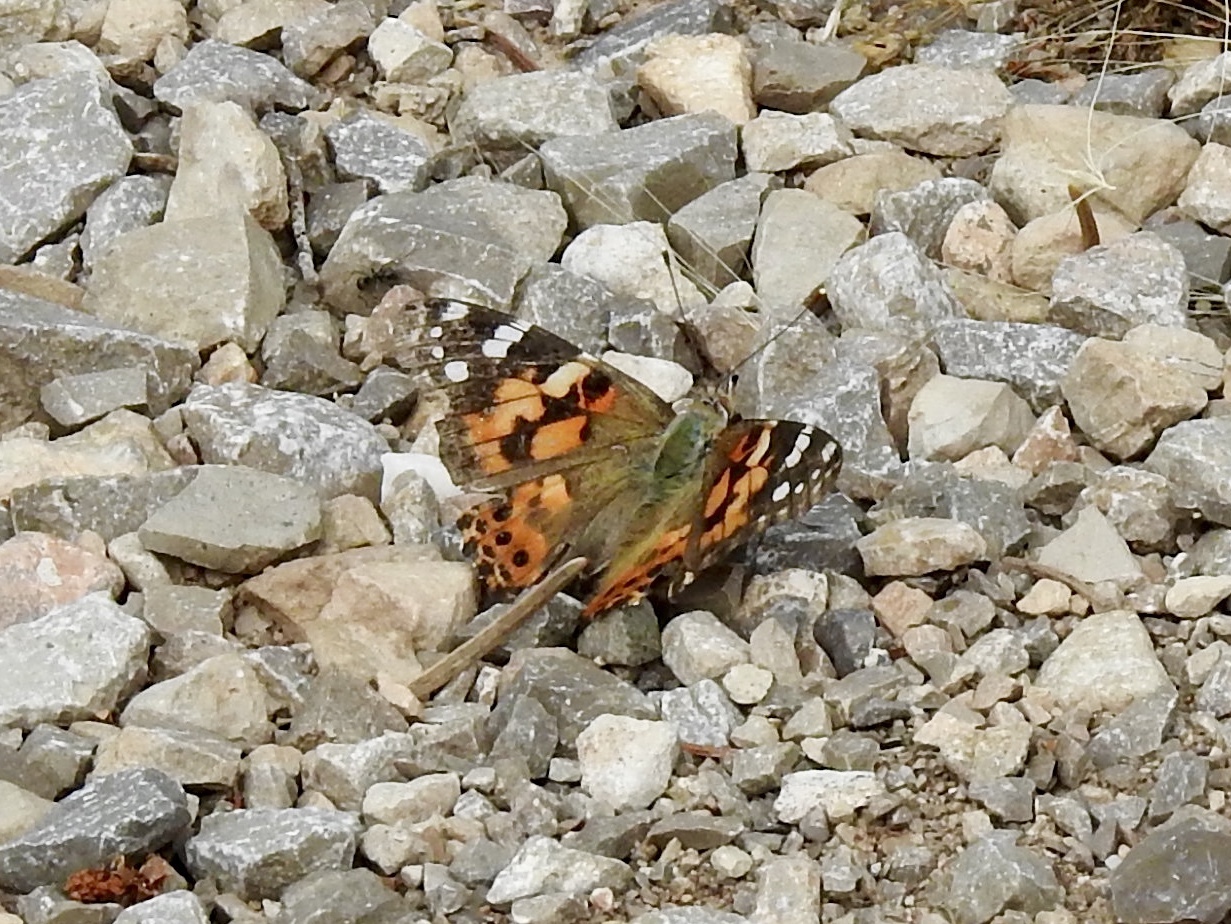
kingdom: Animalia
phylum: Arthropoda
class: Insecta
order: Lepidoptera
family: Nymphalidae
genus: Vanessa
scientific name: Vanessa cardui
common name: Painted lady
